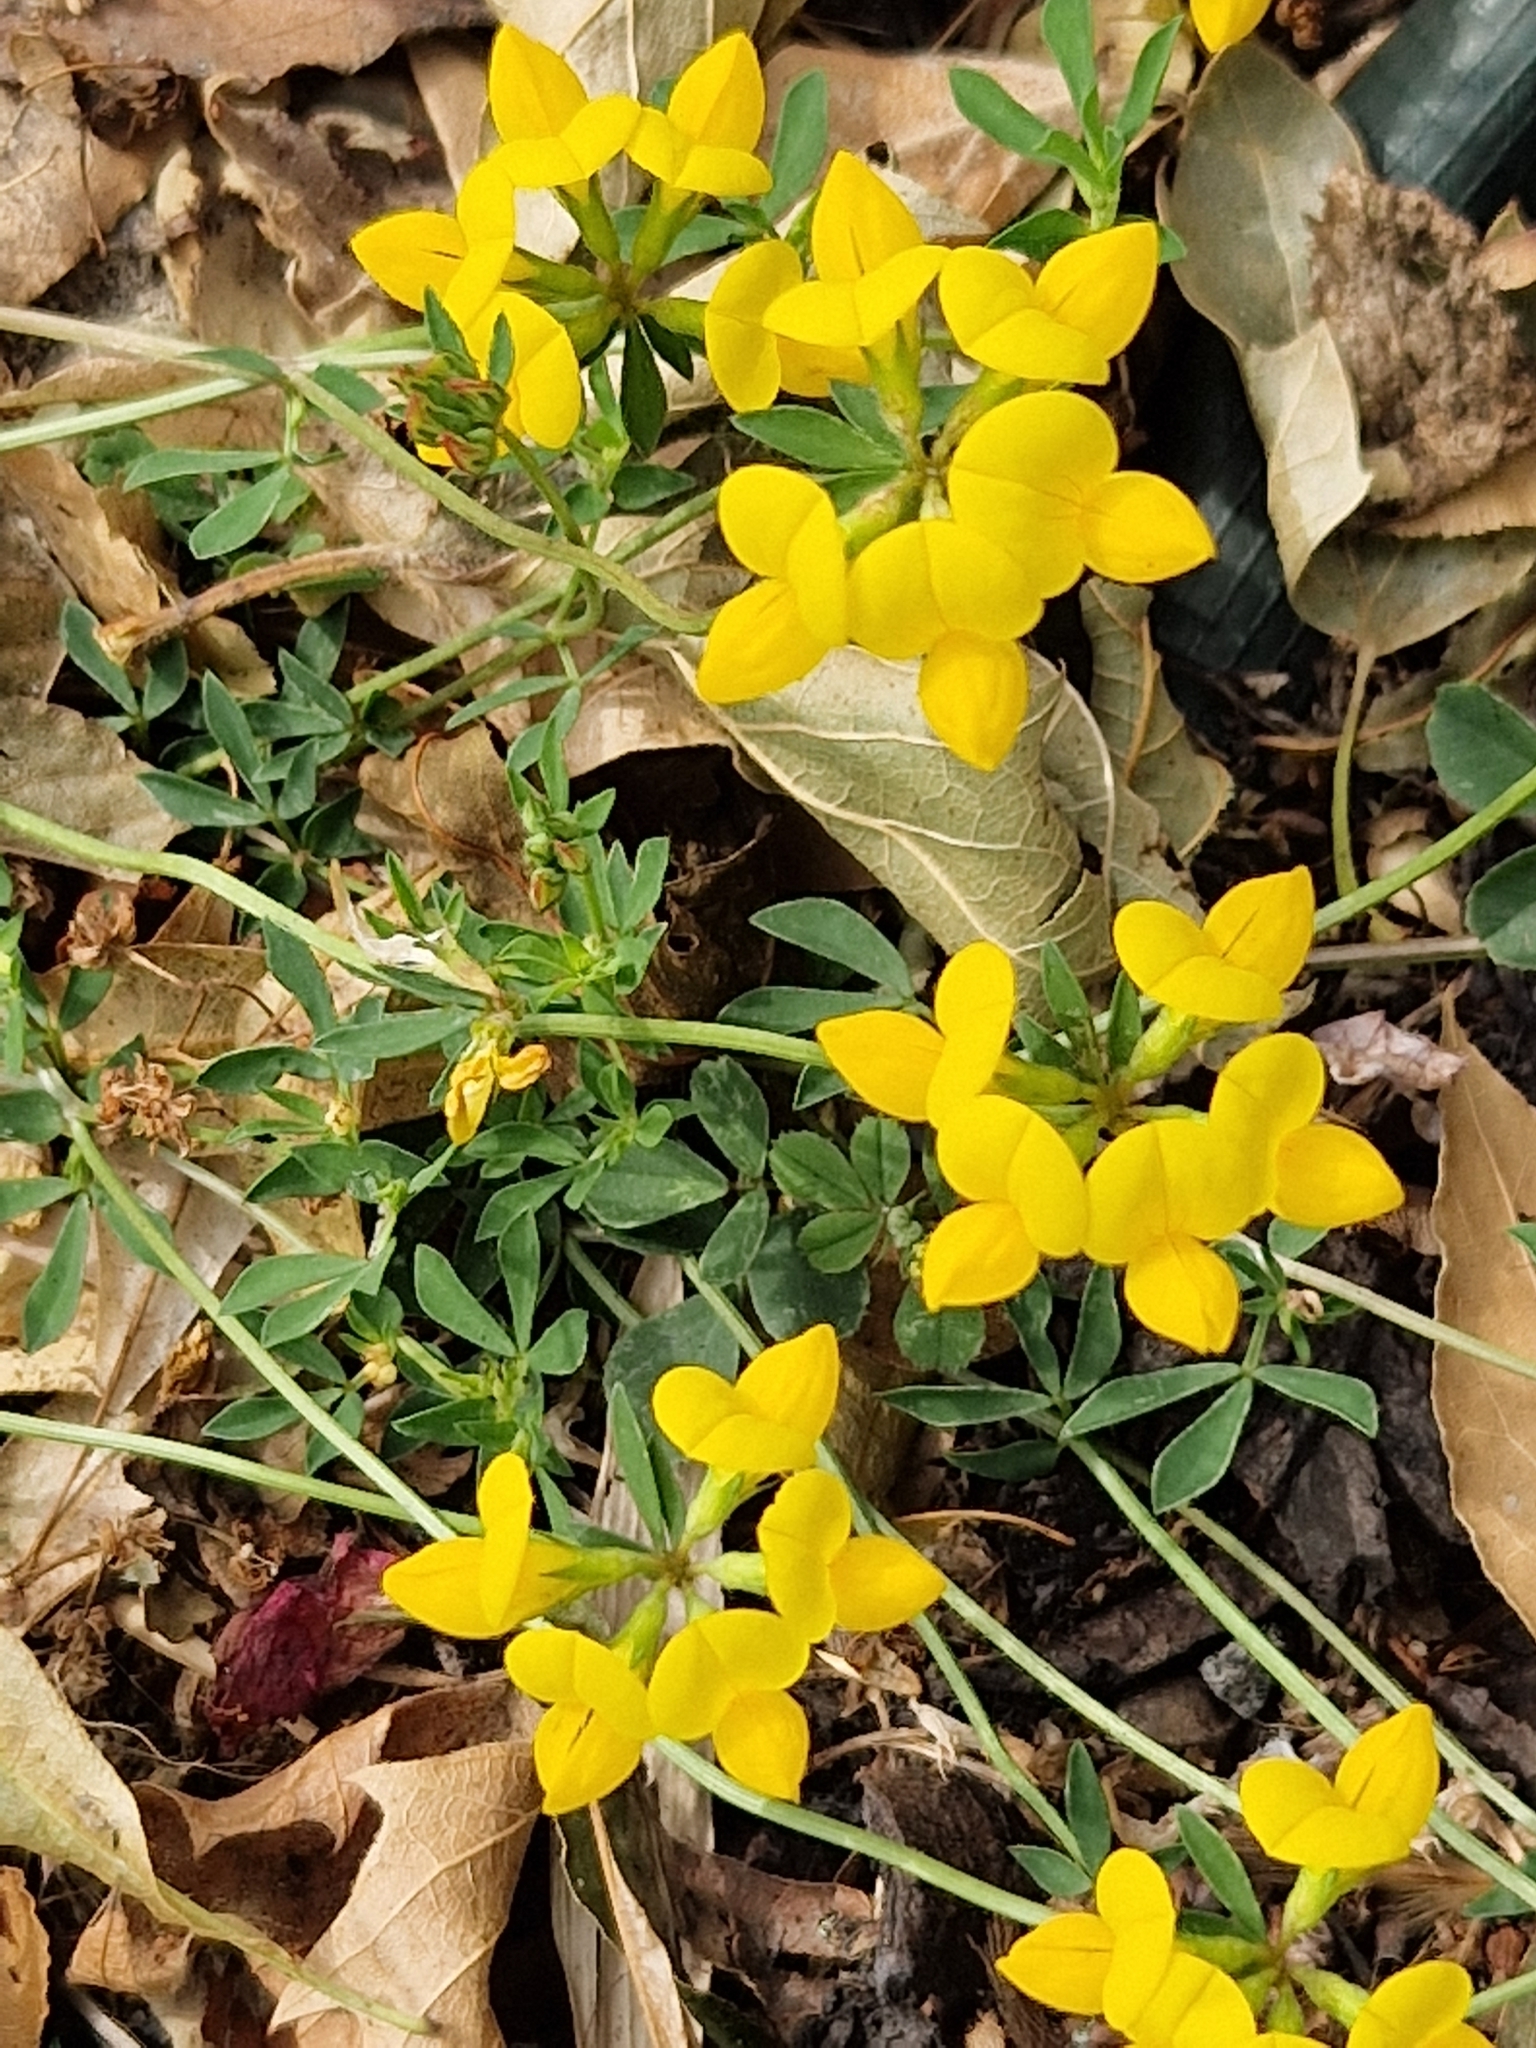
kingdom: Plantae
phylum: Tracheophyta
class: Magnoliopsida
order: Fabales
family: Fabaceae
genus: Lotus
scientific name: Lotus corniculatus
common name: Common bird's-foot-trefoil
